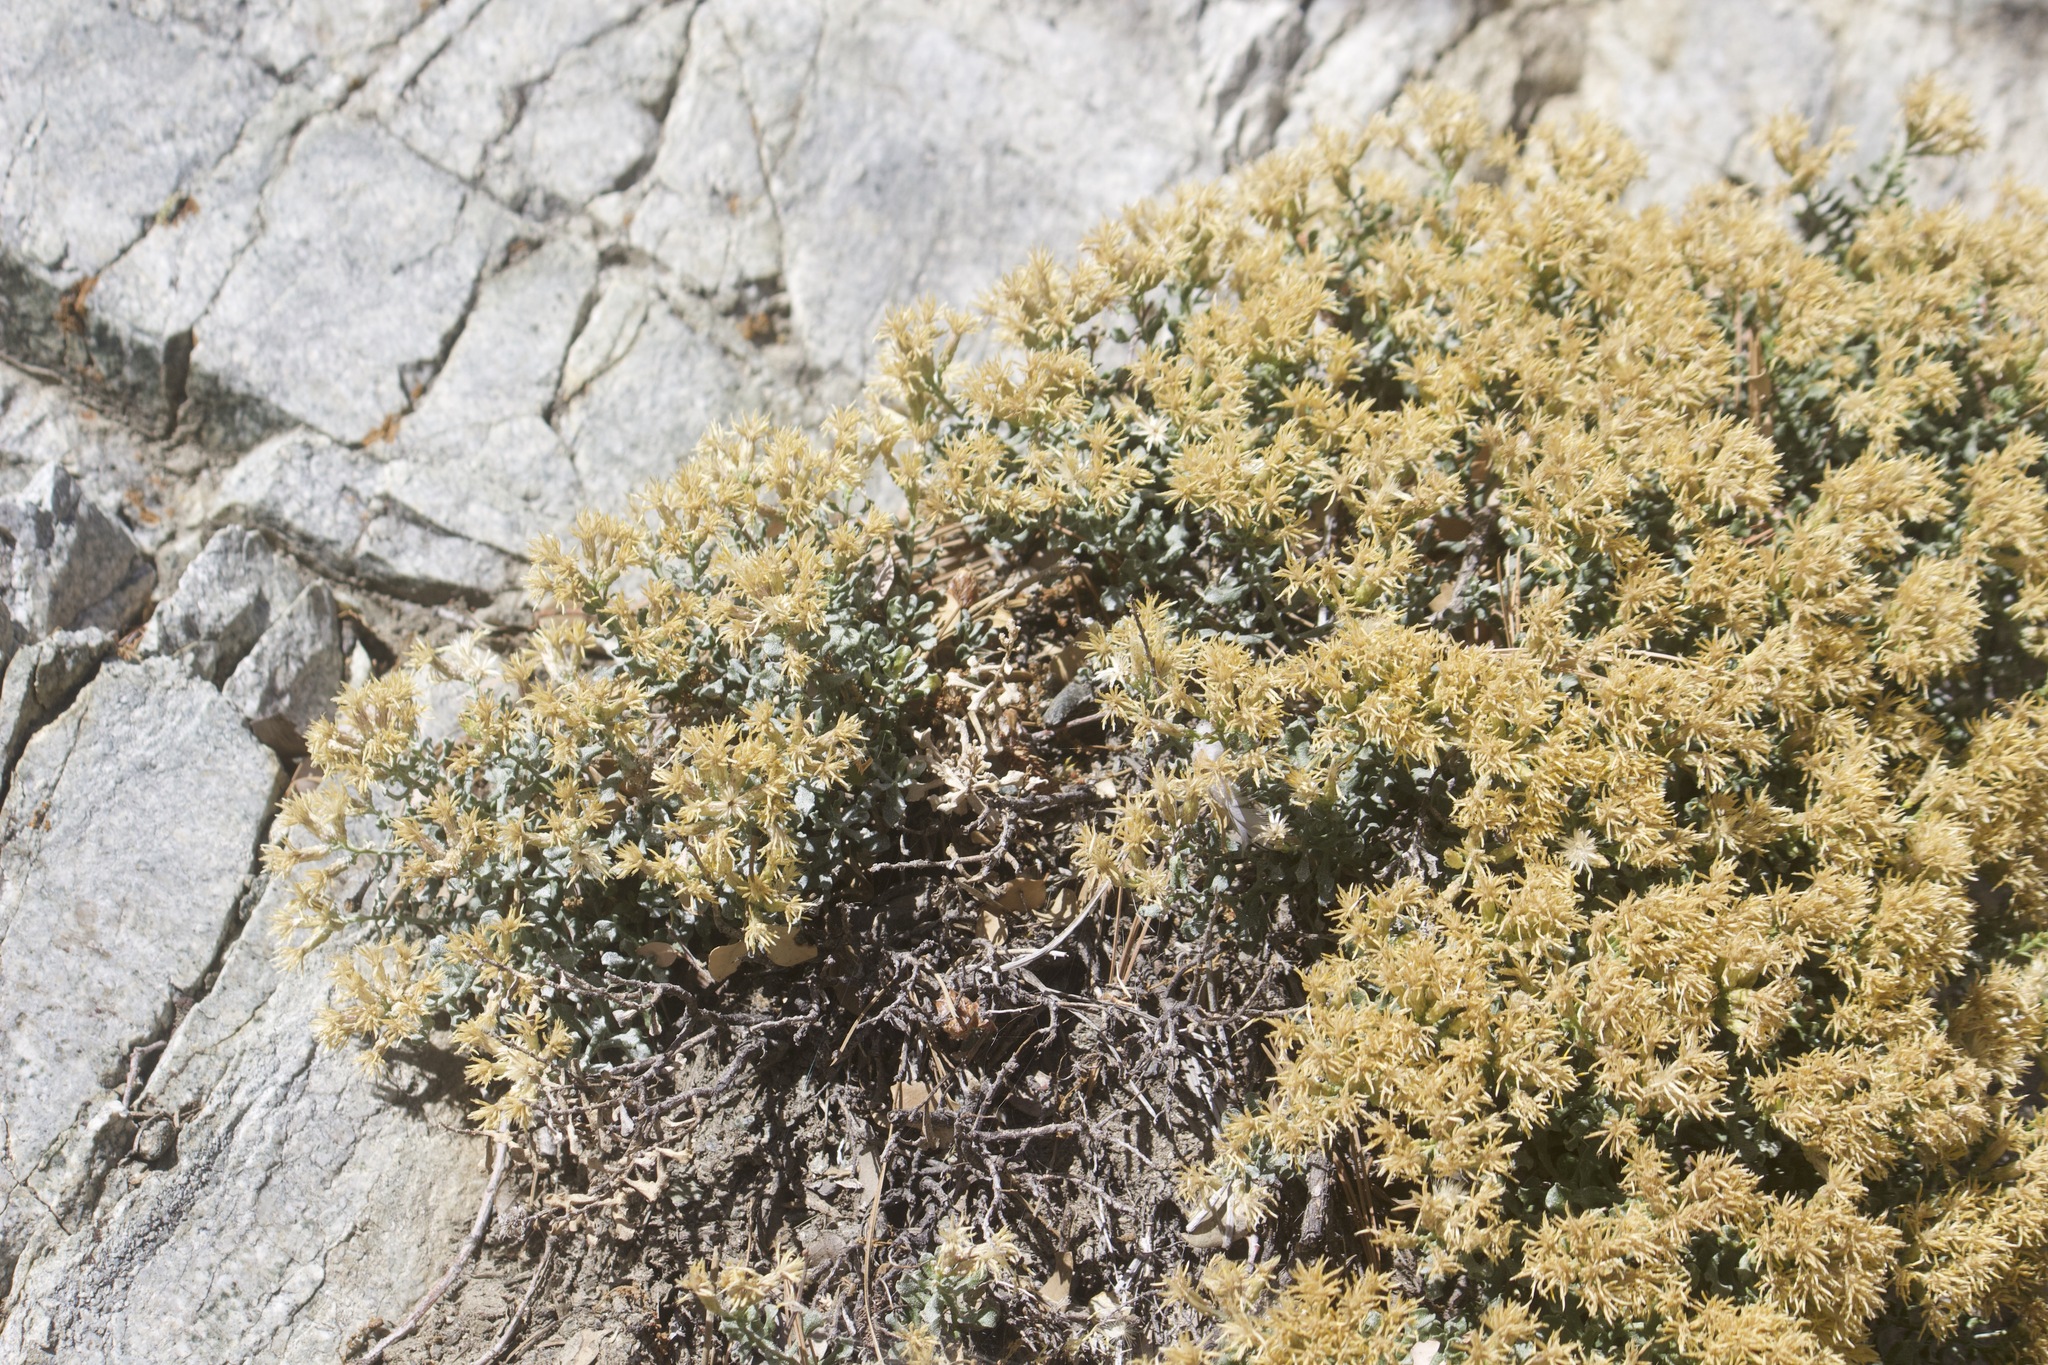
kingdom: Plantae
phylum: Tracheophyta
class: Magnoliopsida
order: Asterales
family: Asteraceae
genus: Ericameria
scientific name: Ericameria cuneata
